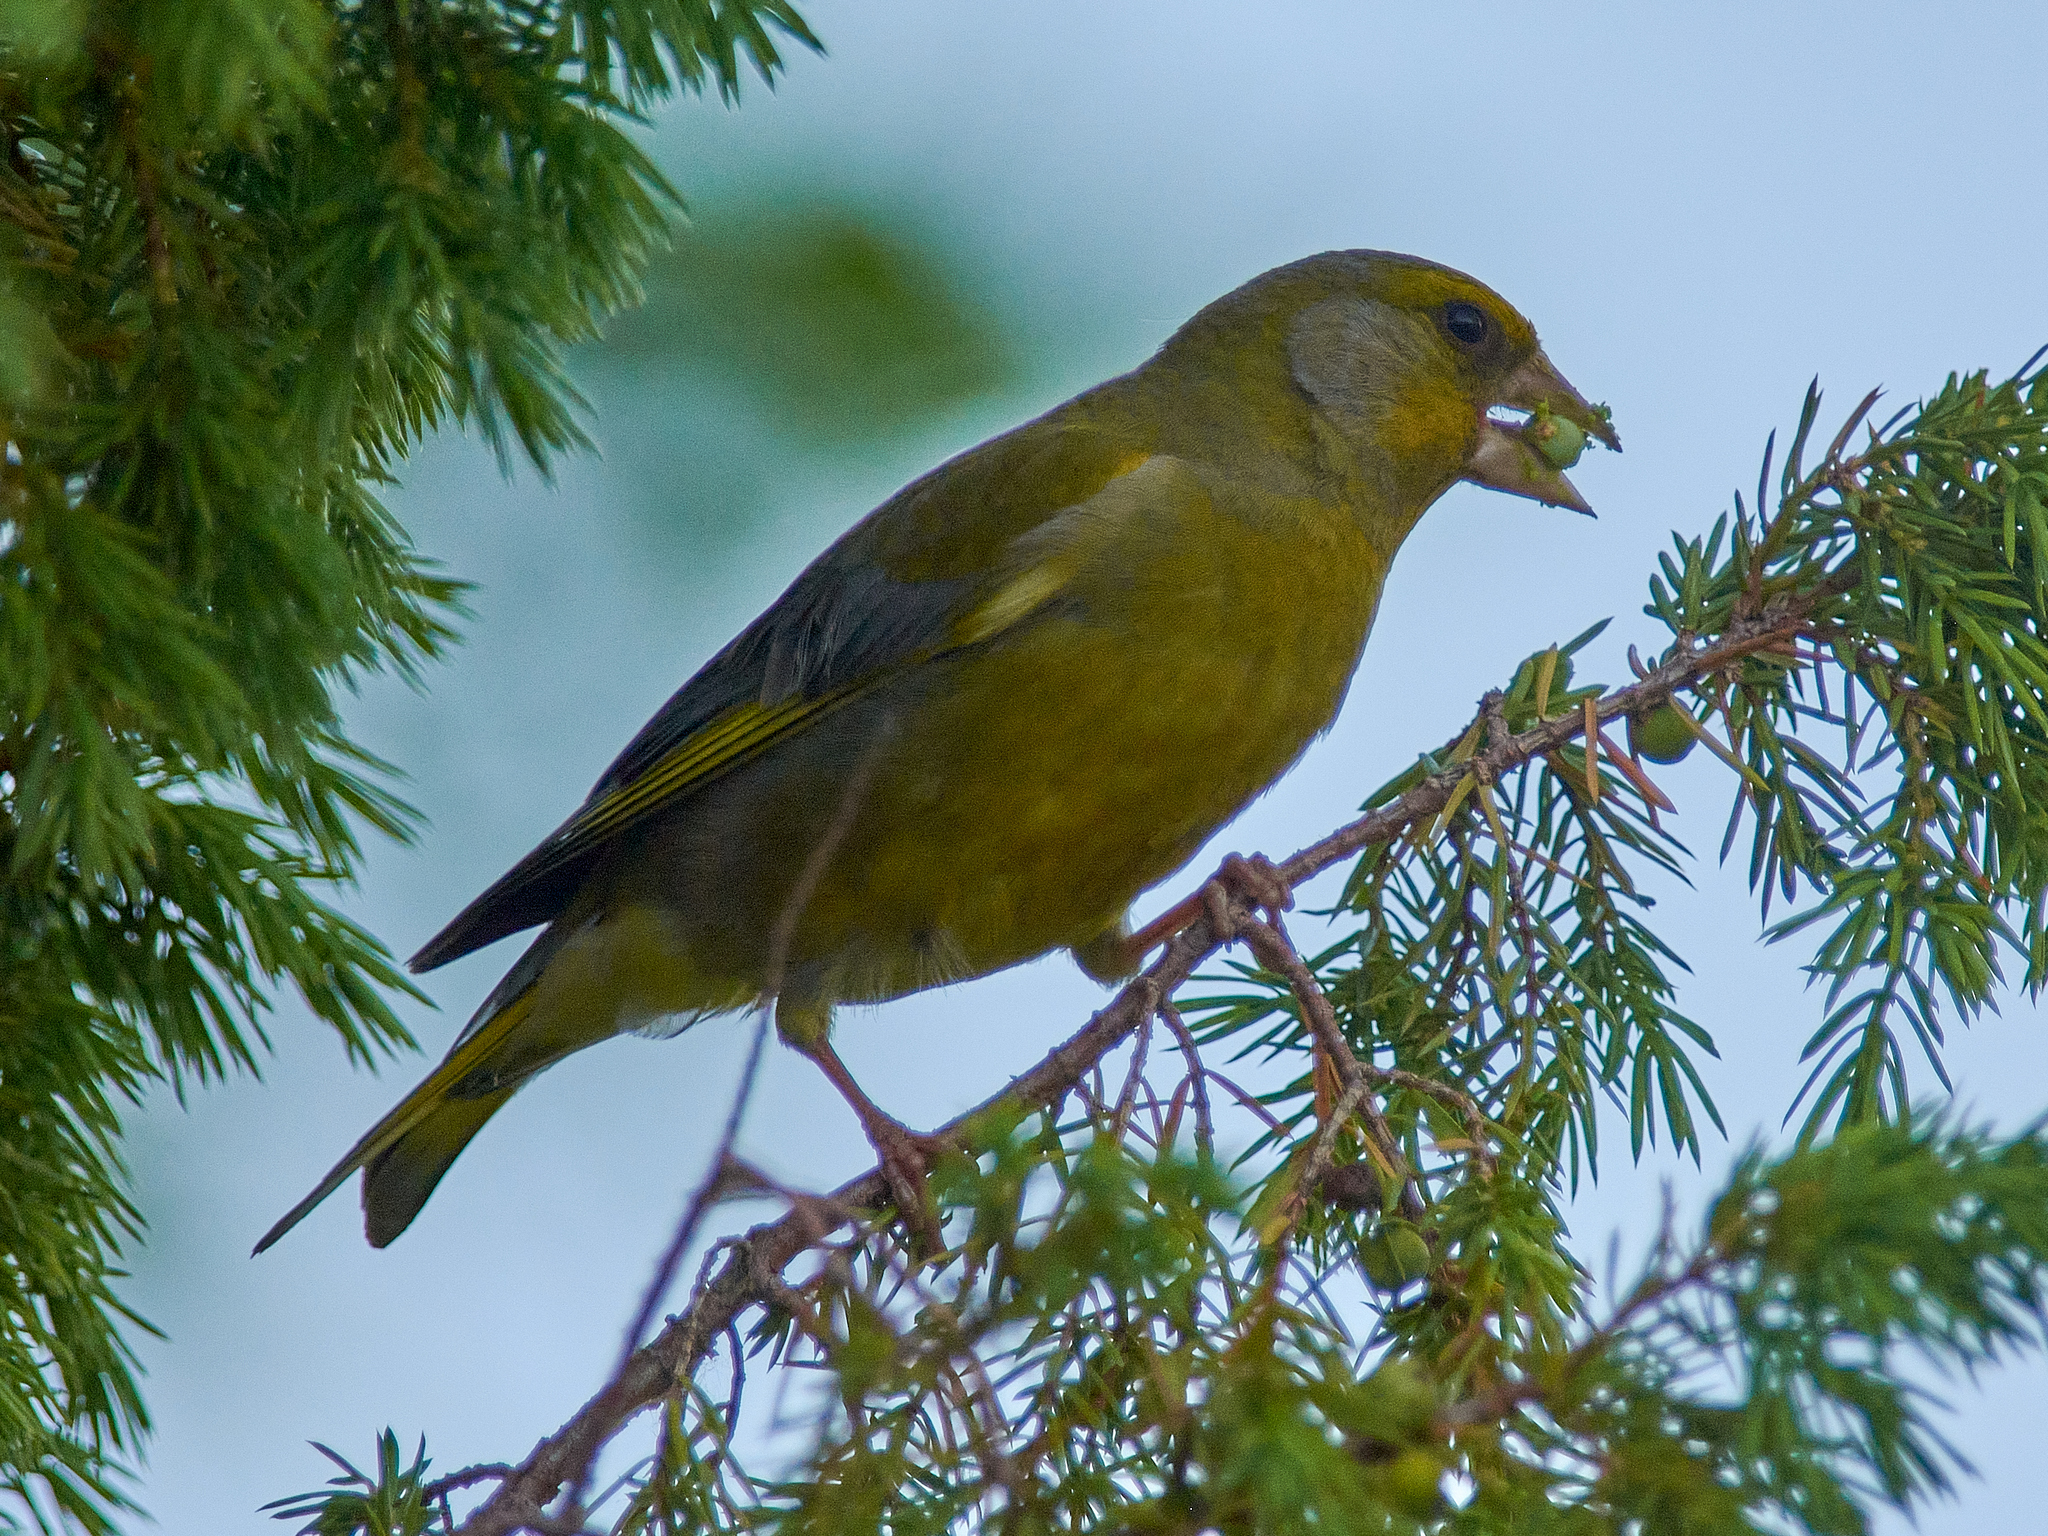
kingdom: Plantae
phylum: Tracheophyta
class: Liliopsida
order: Poales
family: Poaceae
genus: Chloris
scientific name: Chloris chloris
